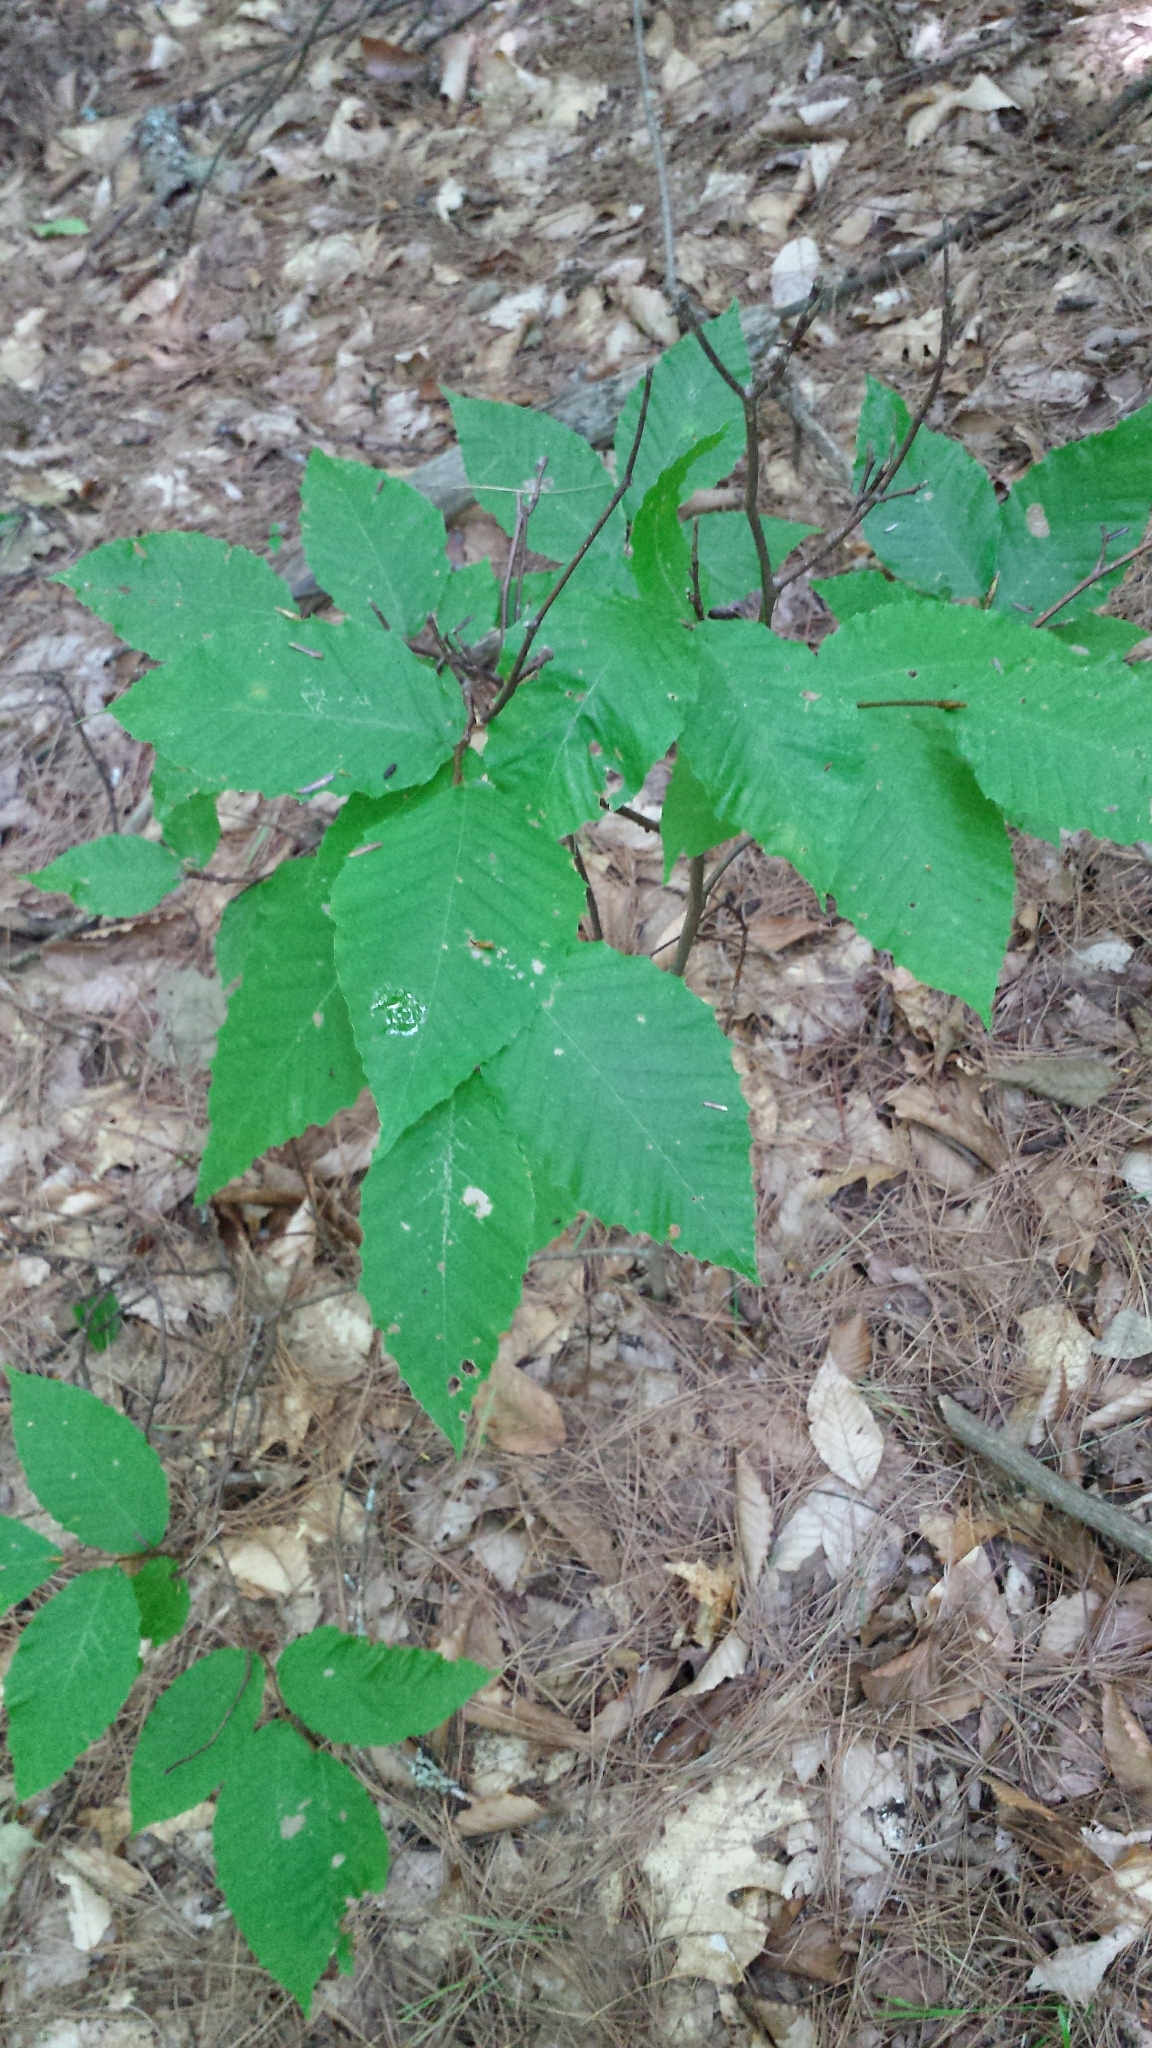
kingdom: Plantae
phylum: Tracheophyta
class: Magnoliopsida
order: Fagales
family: Fagaceae
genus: Fagus
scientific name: Fagus grandifolia
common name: American beech
